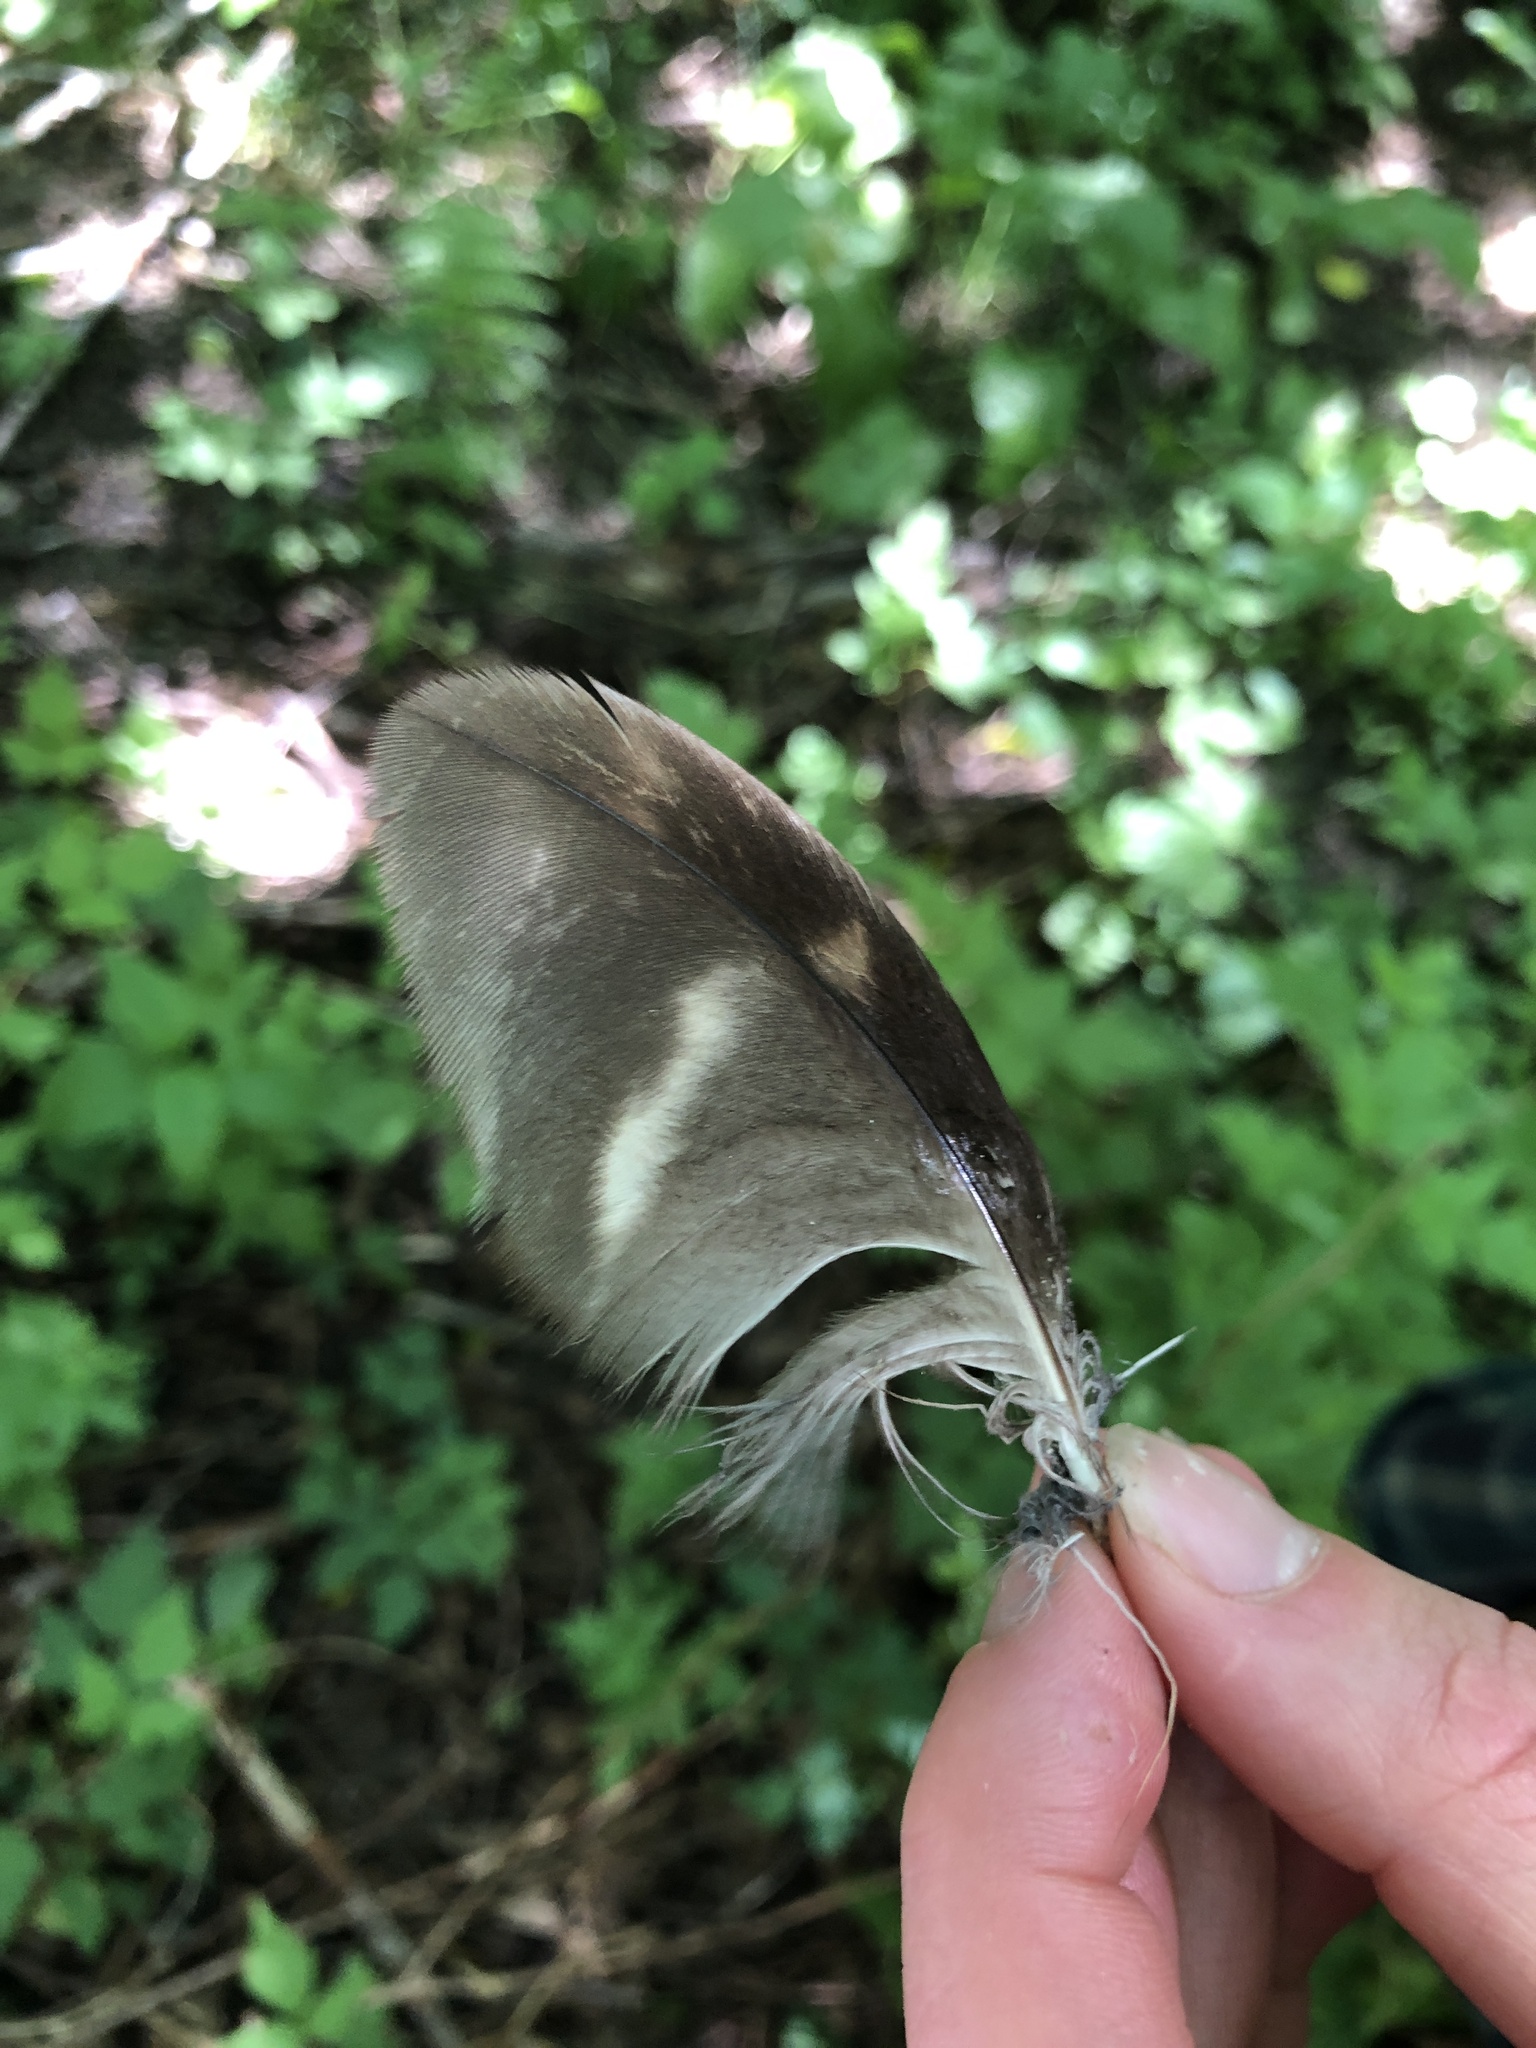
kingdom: Animalia
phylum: Chordata
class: Aves
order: Strigiformes
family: Strigidae
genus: Strix
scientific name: Strix varia
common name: Barred owl
